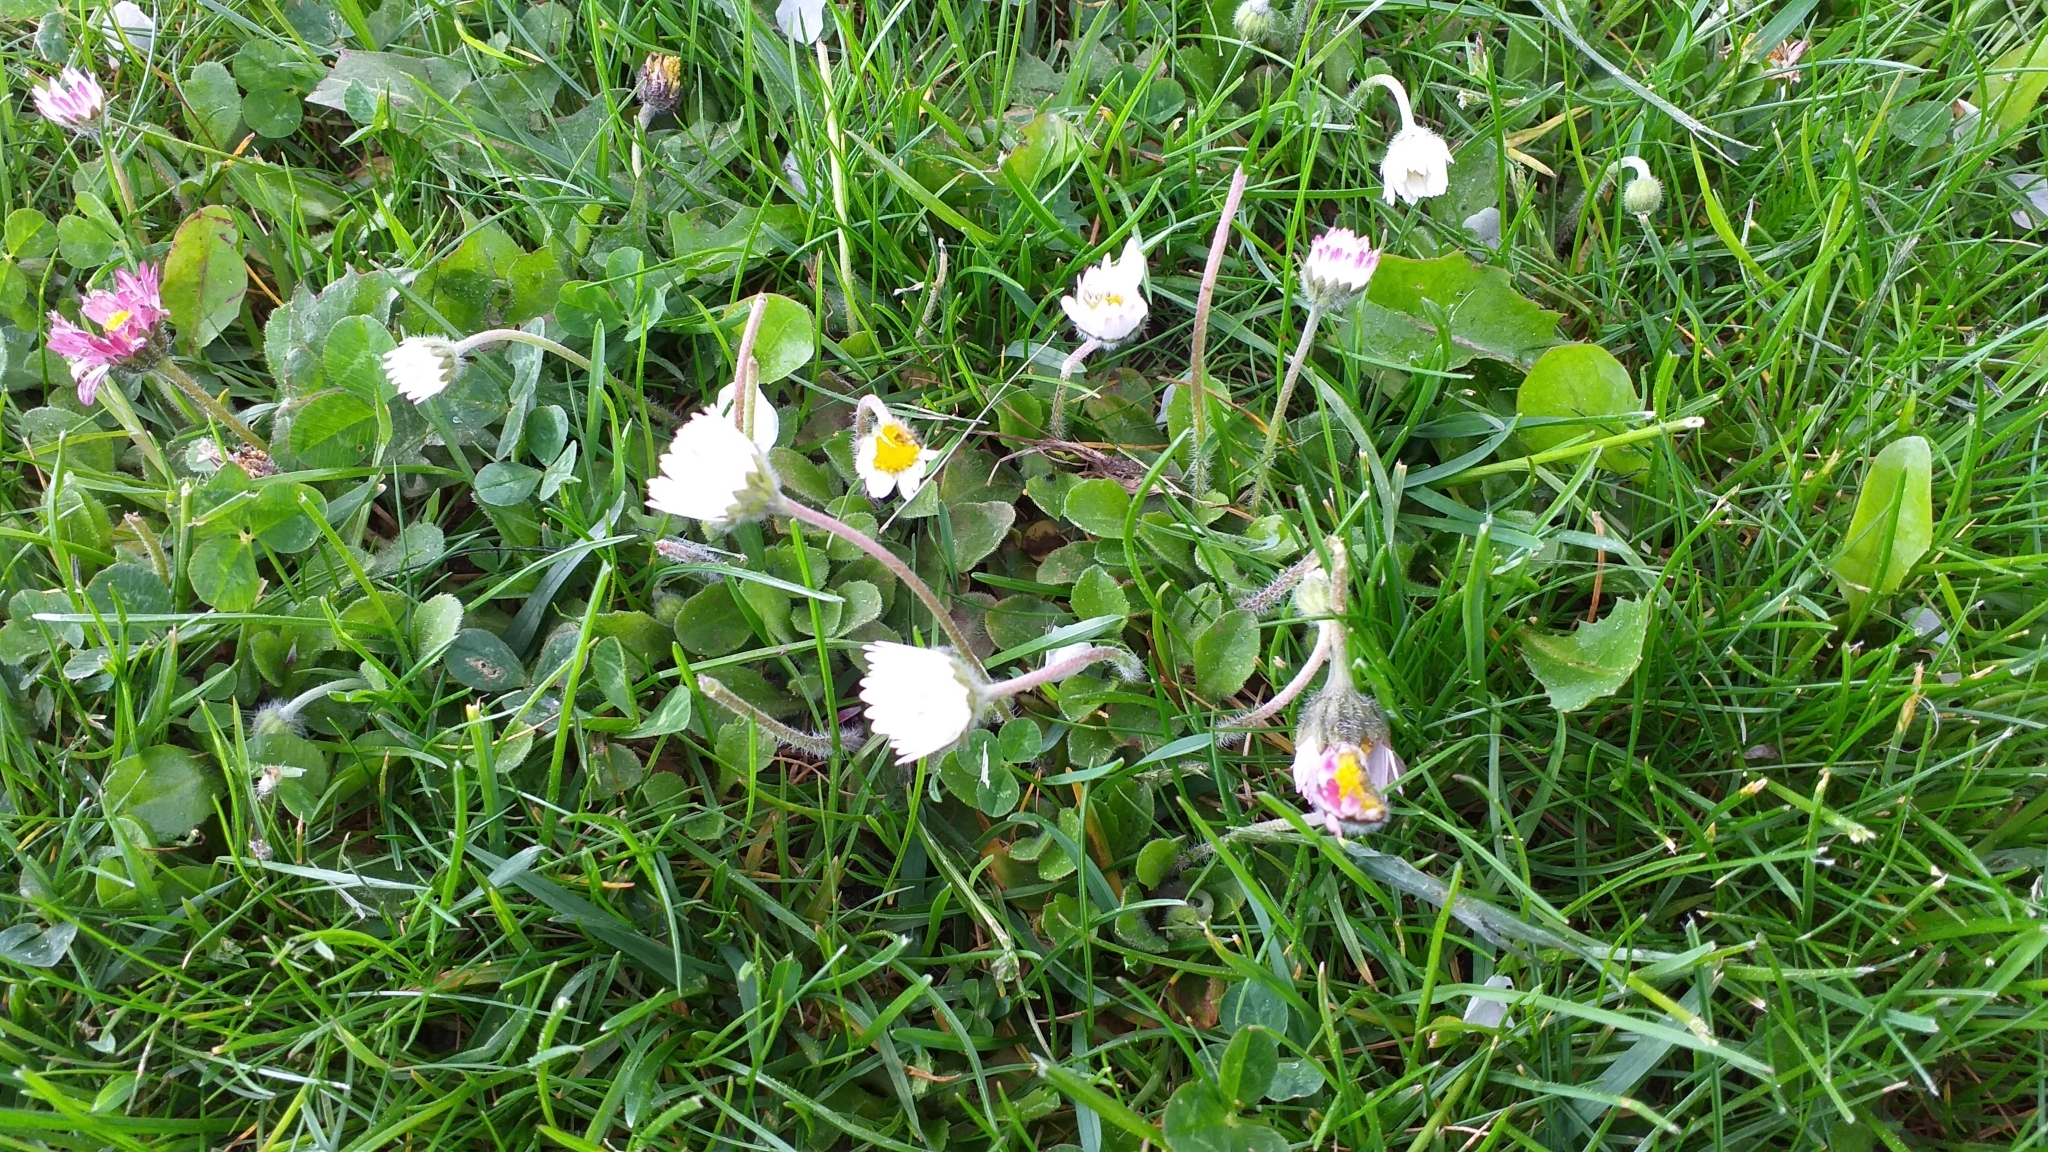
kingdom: Plantae
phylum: Tracheophyta
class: Magnoliopsida
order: Asterales
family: Asteraceae
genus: Bellis
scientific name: Bellis perennis
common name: Lawndaisy
